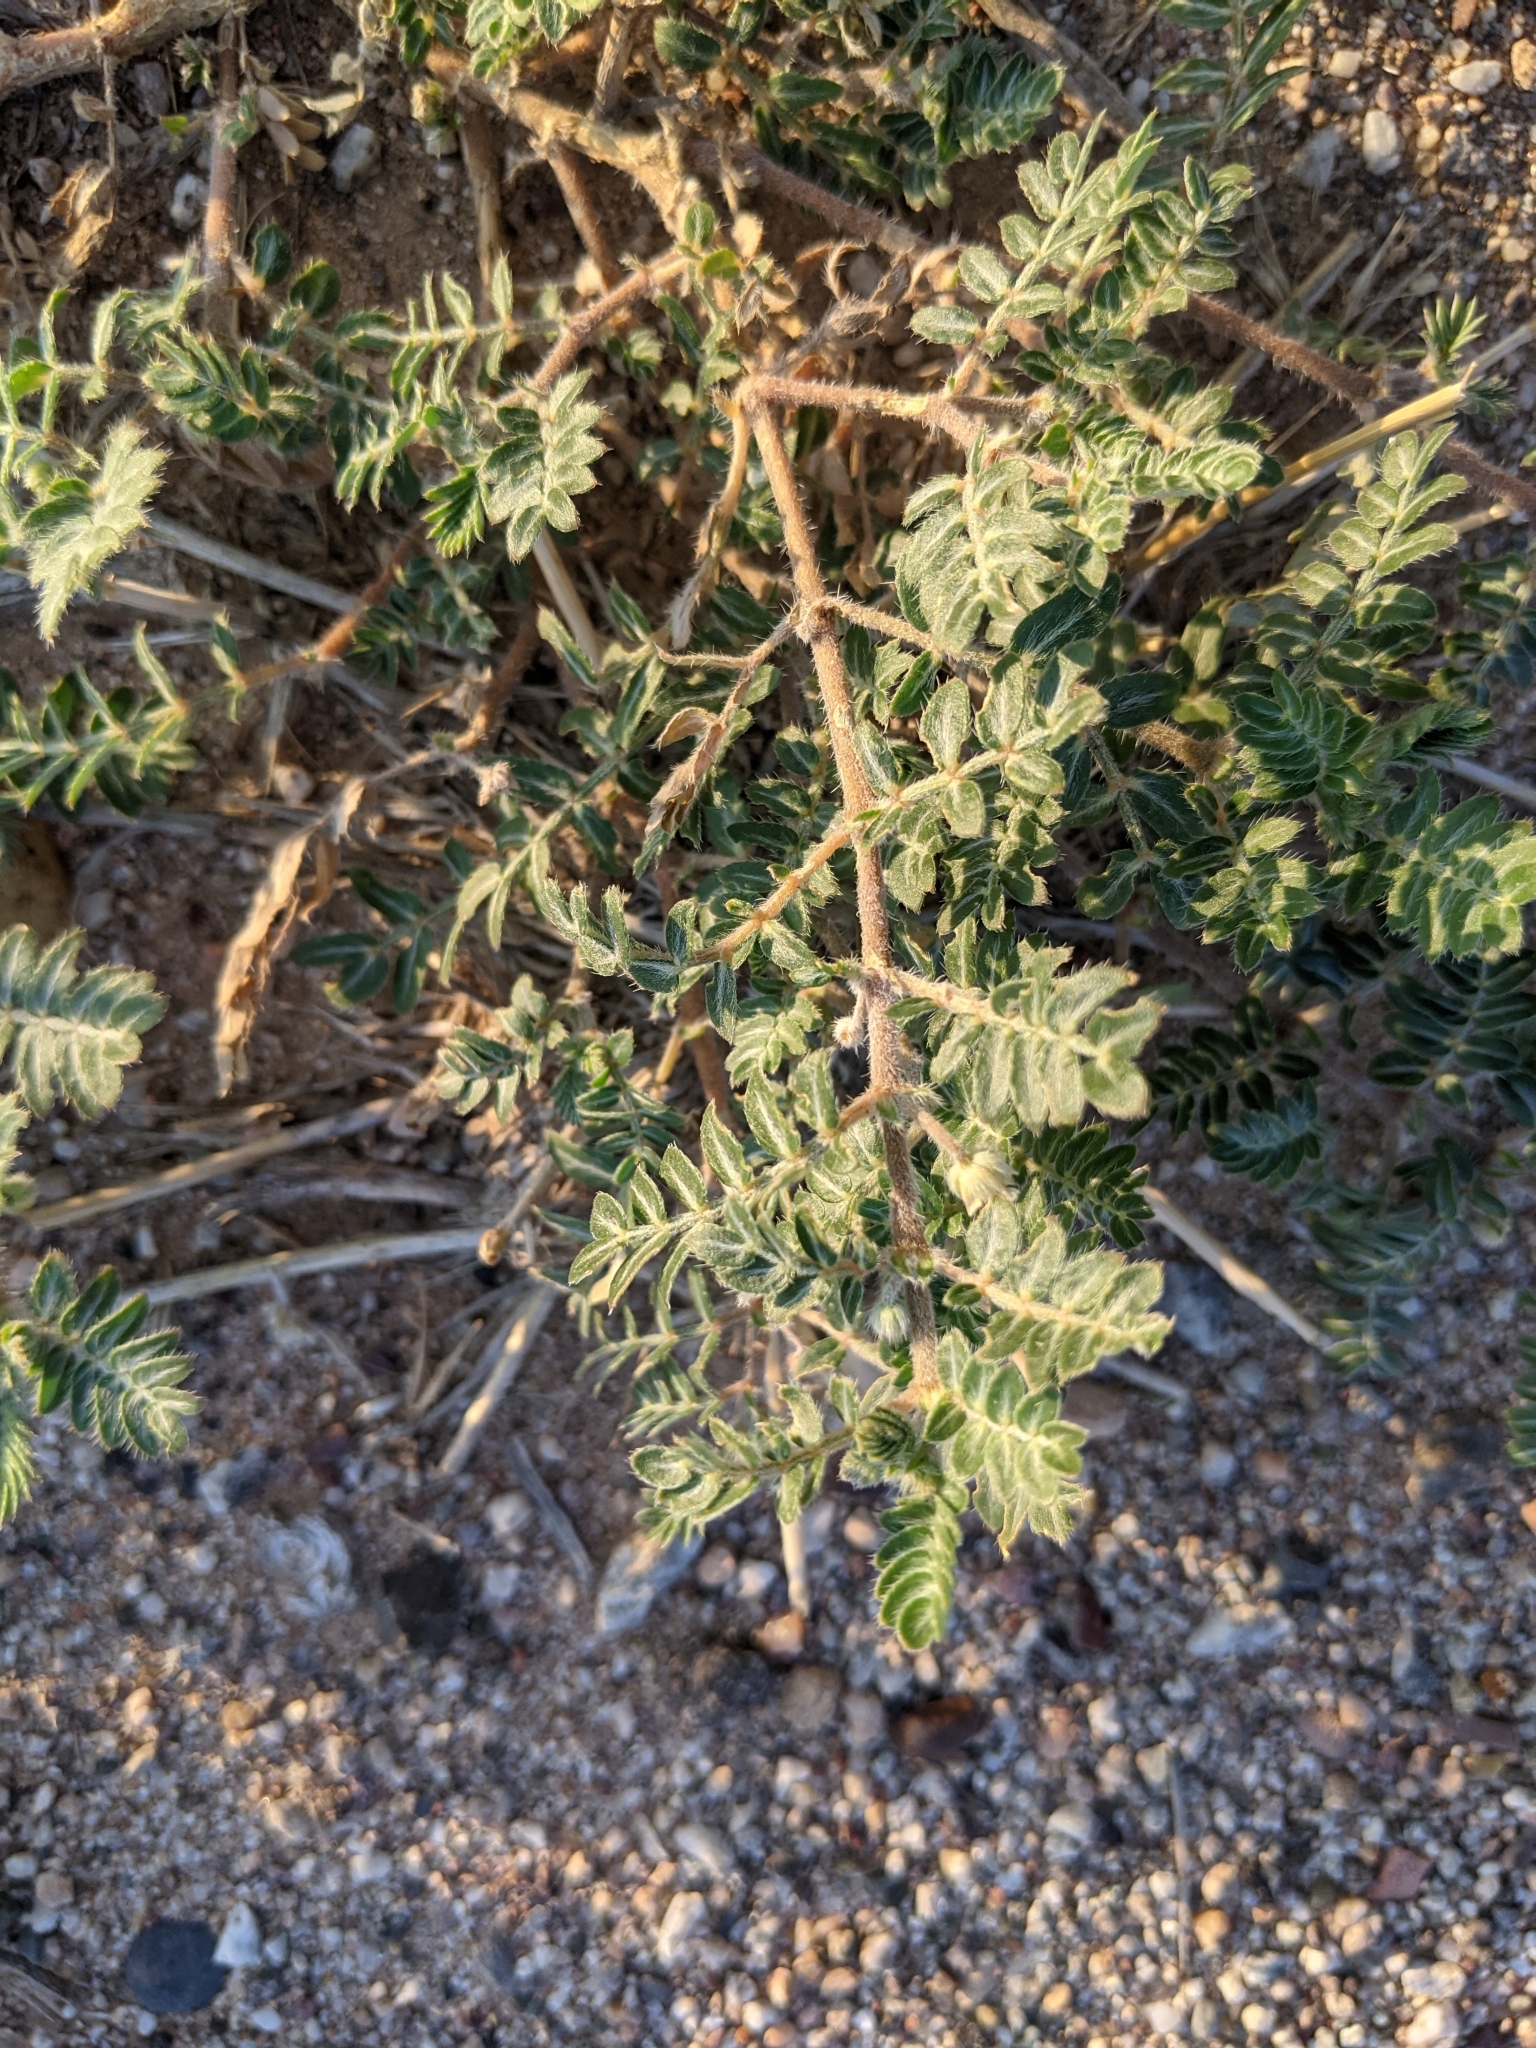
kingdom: Plantae
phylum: Tracheophyta
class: Magnoliopsida
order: Zygophyllales
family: Zygophyllaceae
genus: Tribulus
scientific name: Tribulus terrestris
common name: Puncturevine
